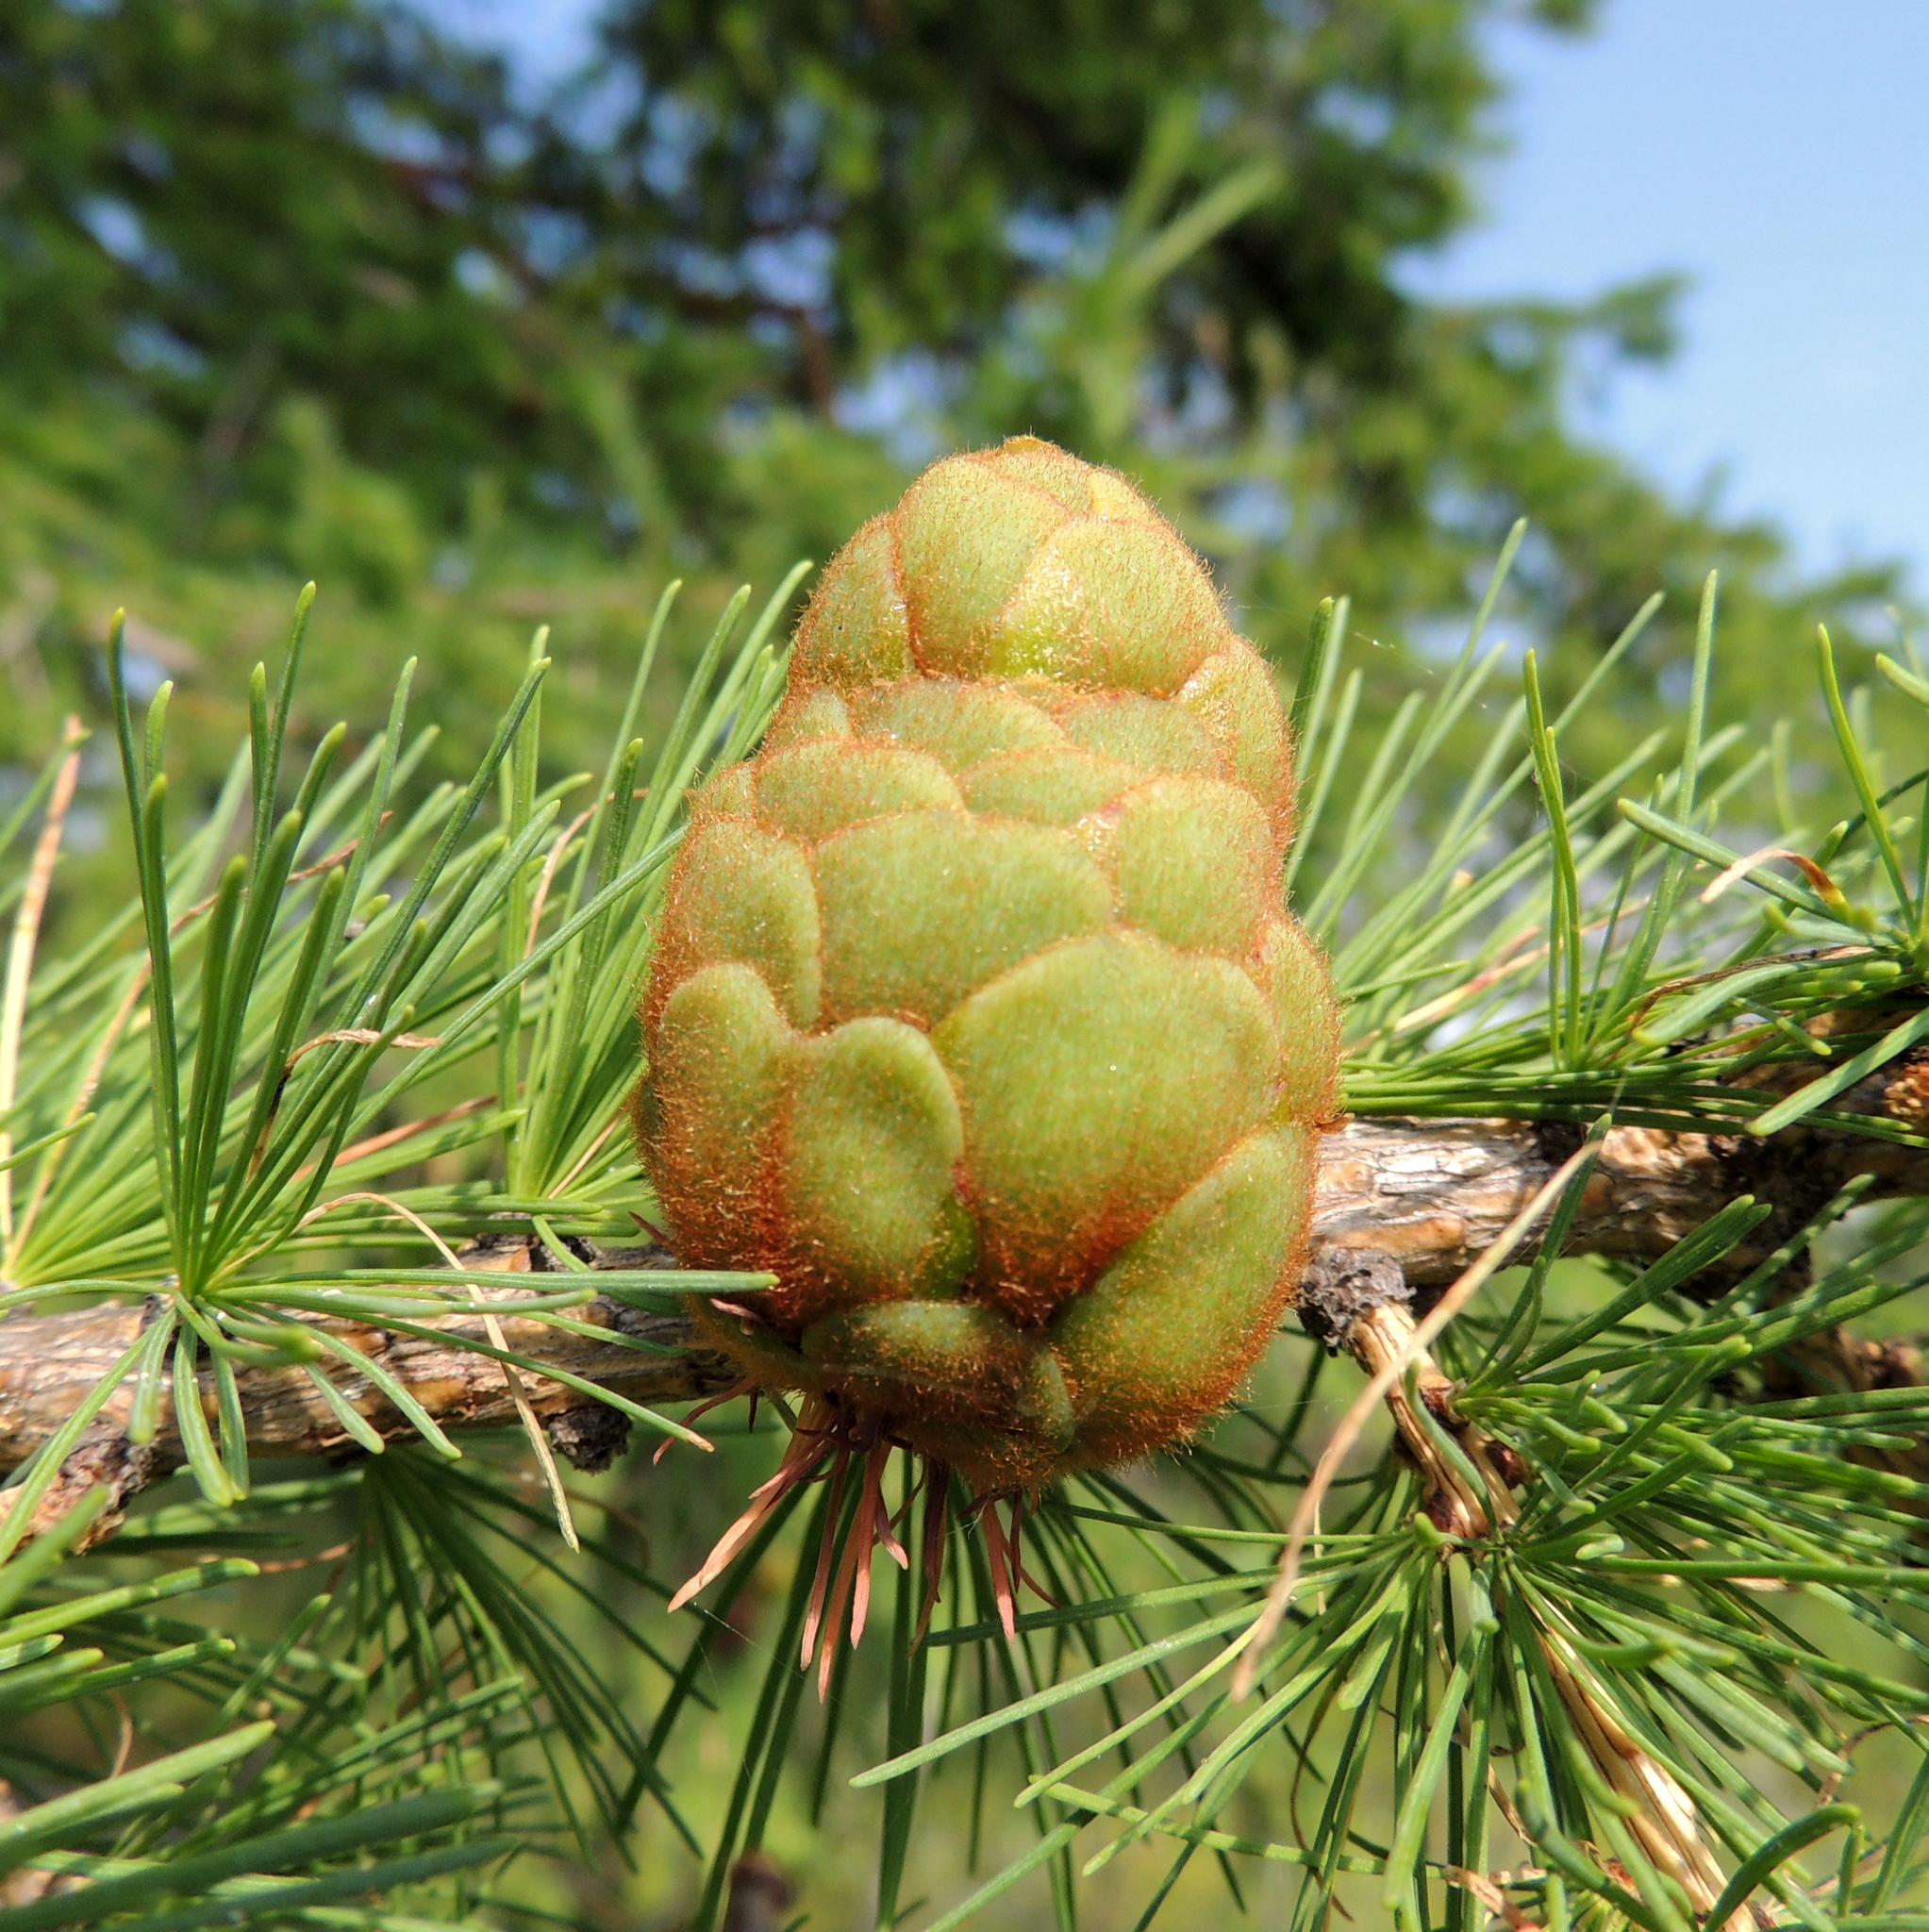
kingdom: Plantae
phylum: Tracheophyta
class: Pinopsida
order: Pinales
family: Pinaceae
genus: Larix
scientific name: Larix sibirica
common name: Siberian larch
